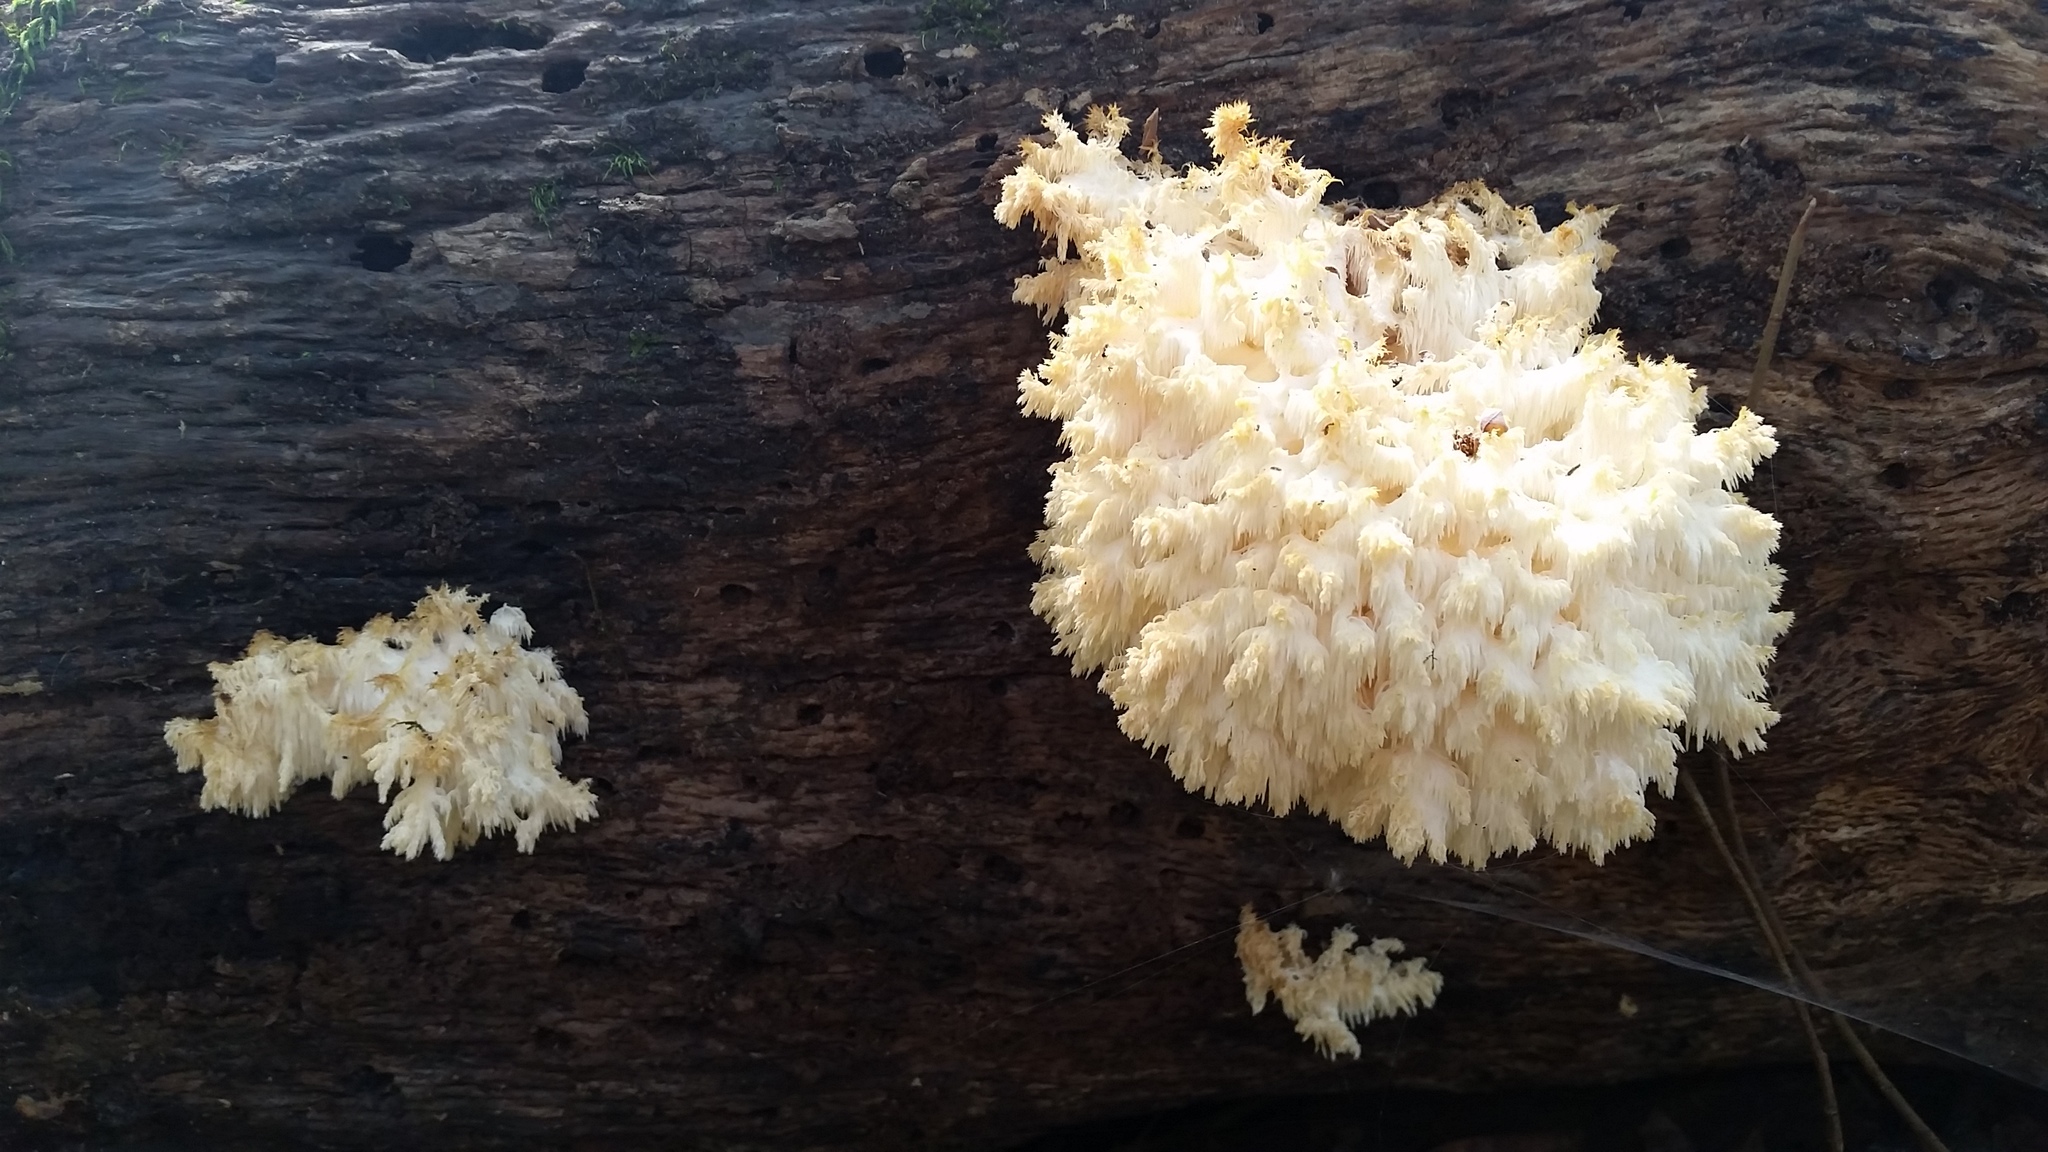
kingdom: Fungi
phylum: Basidiomycota
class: Agaricomycetes
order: Russulales
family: Hericiaceae
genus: Hericium
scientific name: Hericium coralloides
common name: Coral tooth
